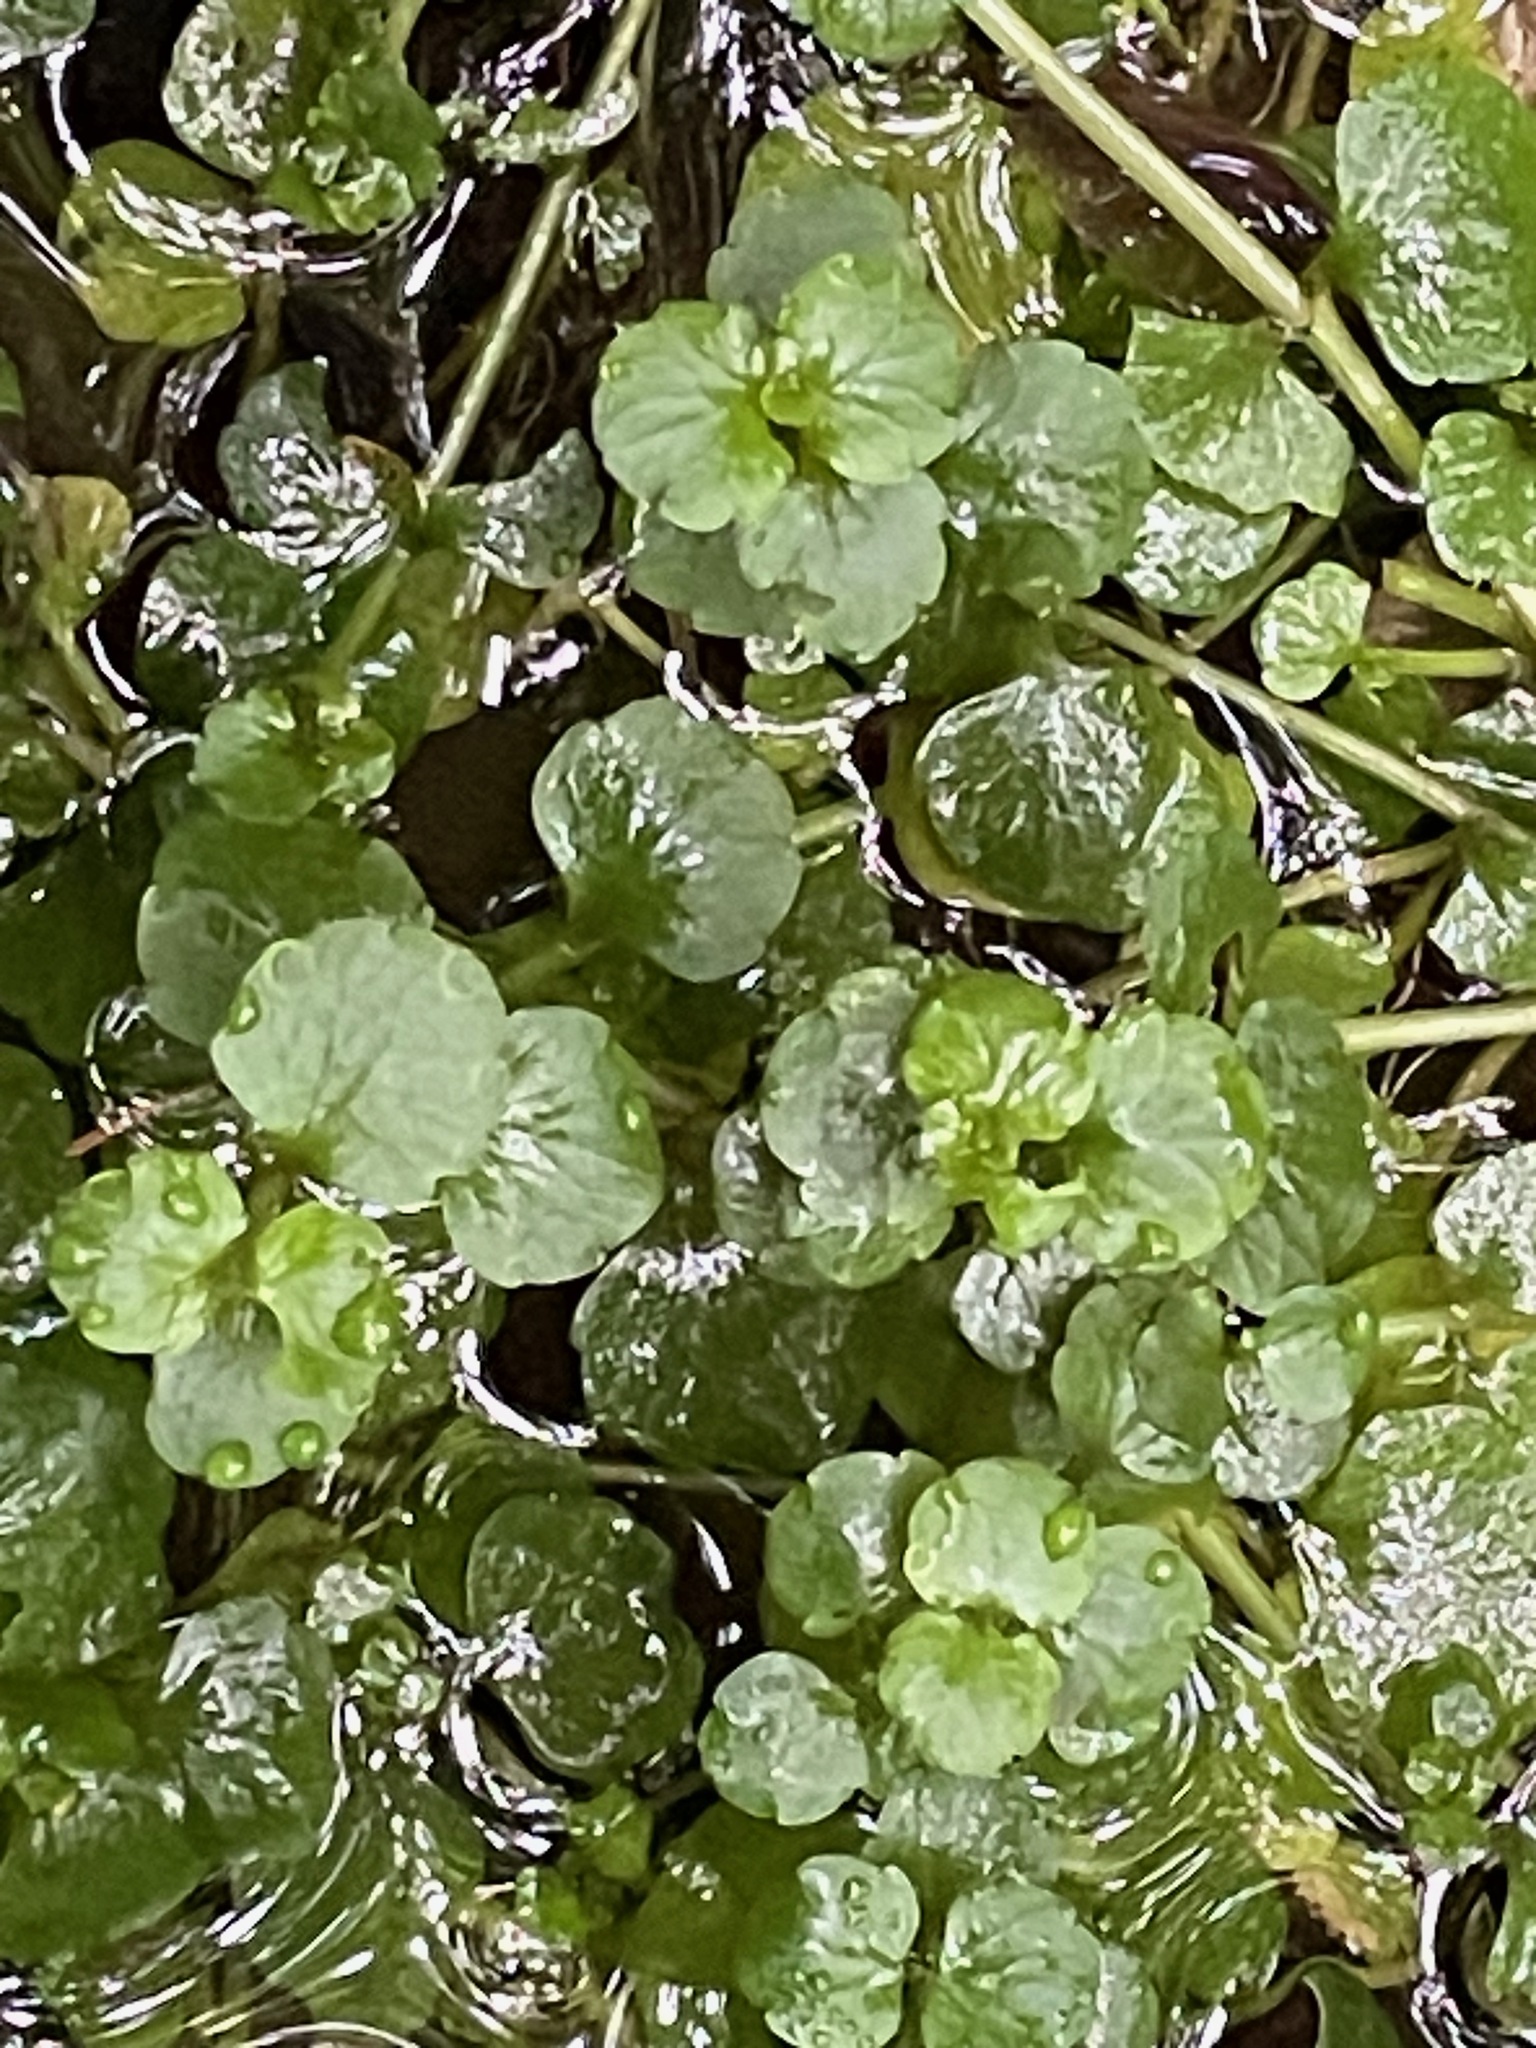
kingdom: Plantae
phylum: Tracheophyta
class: Magnoliopsida
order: Saxifragales
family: Saxifragaceae
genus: Chrysosplenium
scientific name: Chrysosplenium americanum
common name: American golden-saxifrage
